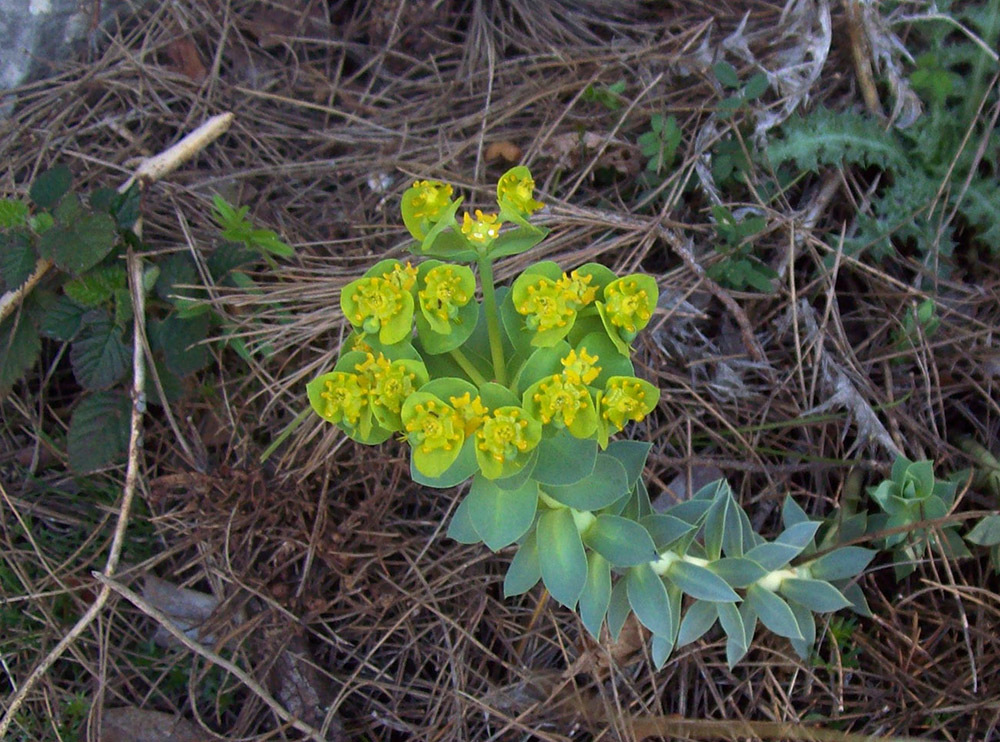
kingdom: Plantae
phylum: Tracheophyta
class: Magnoliopsida
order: Malpighiales
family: Euphorbiaceae
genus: Euphorbia
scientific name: Euphorbia myrsinites
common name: Myrtle spurge
